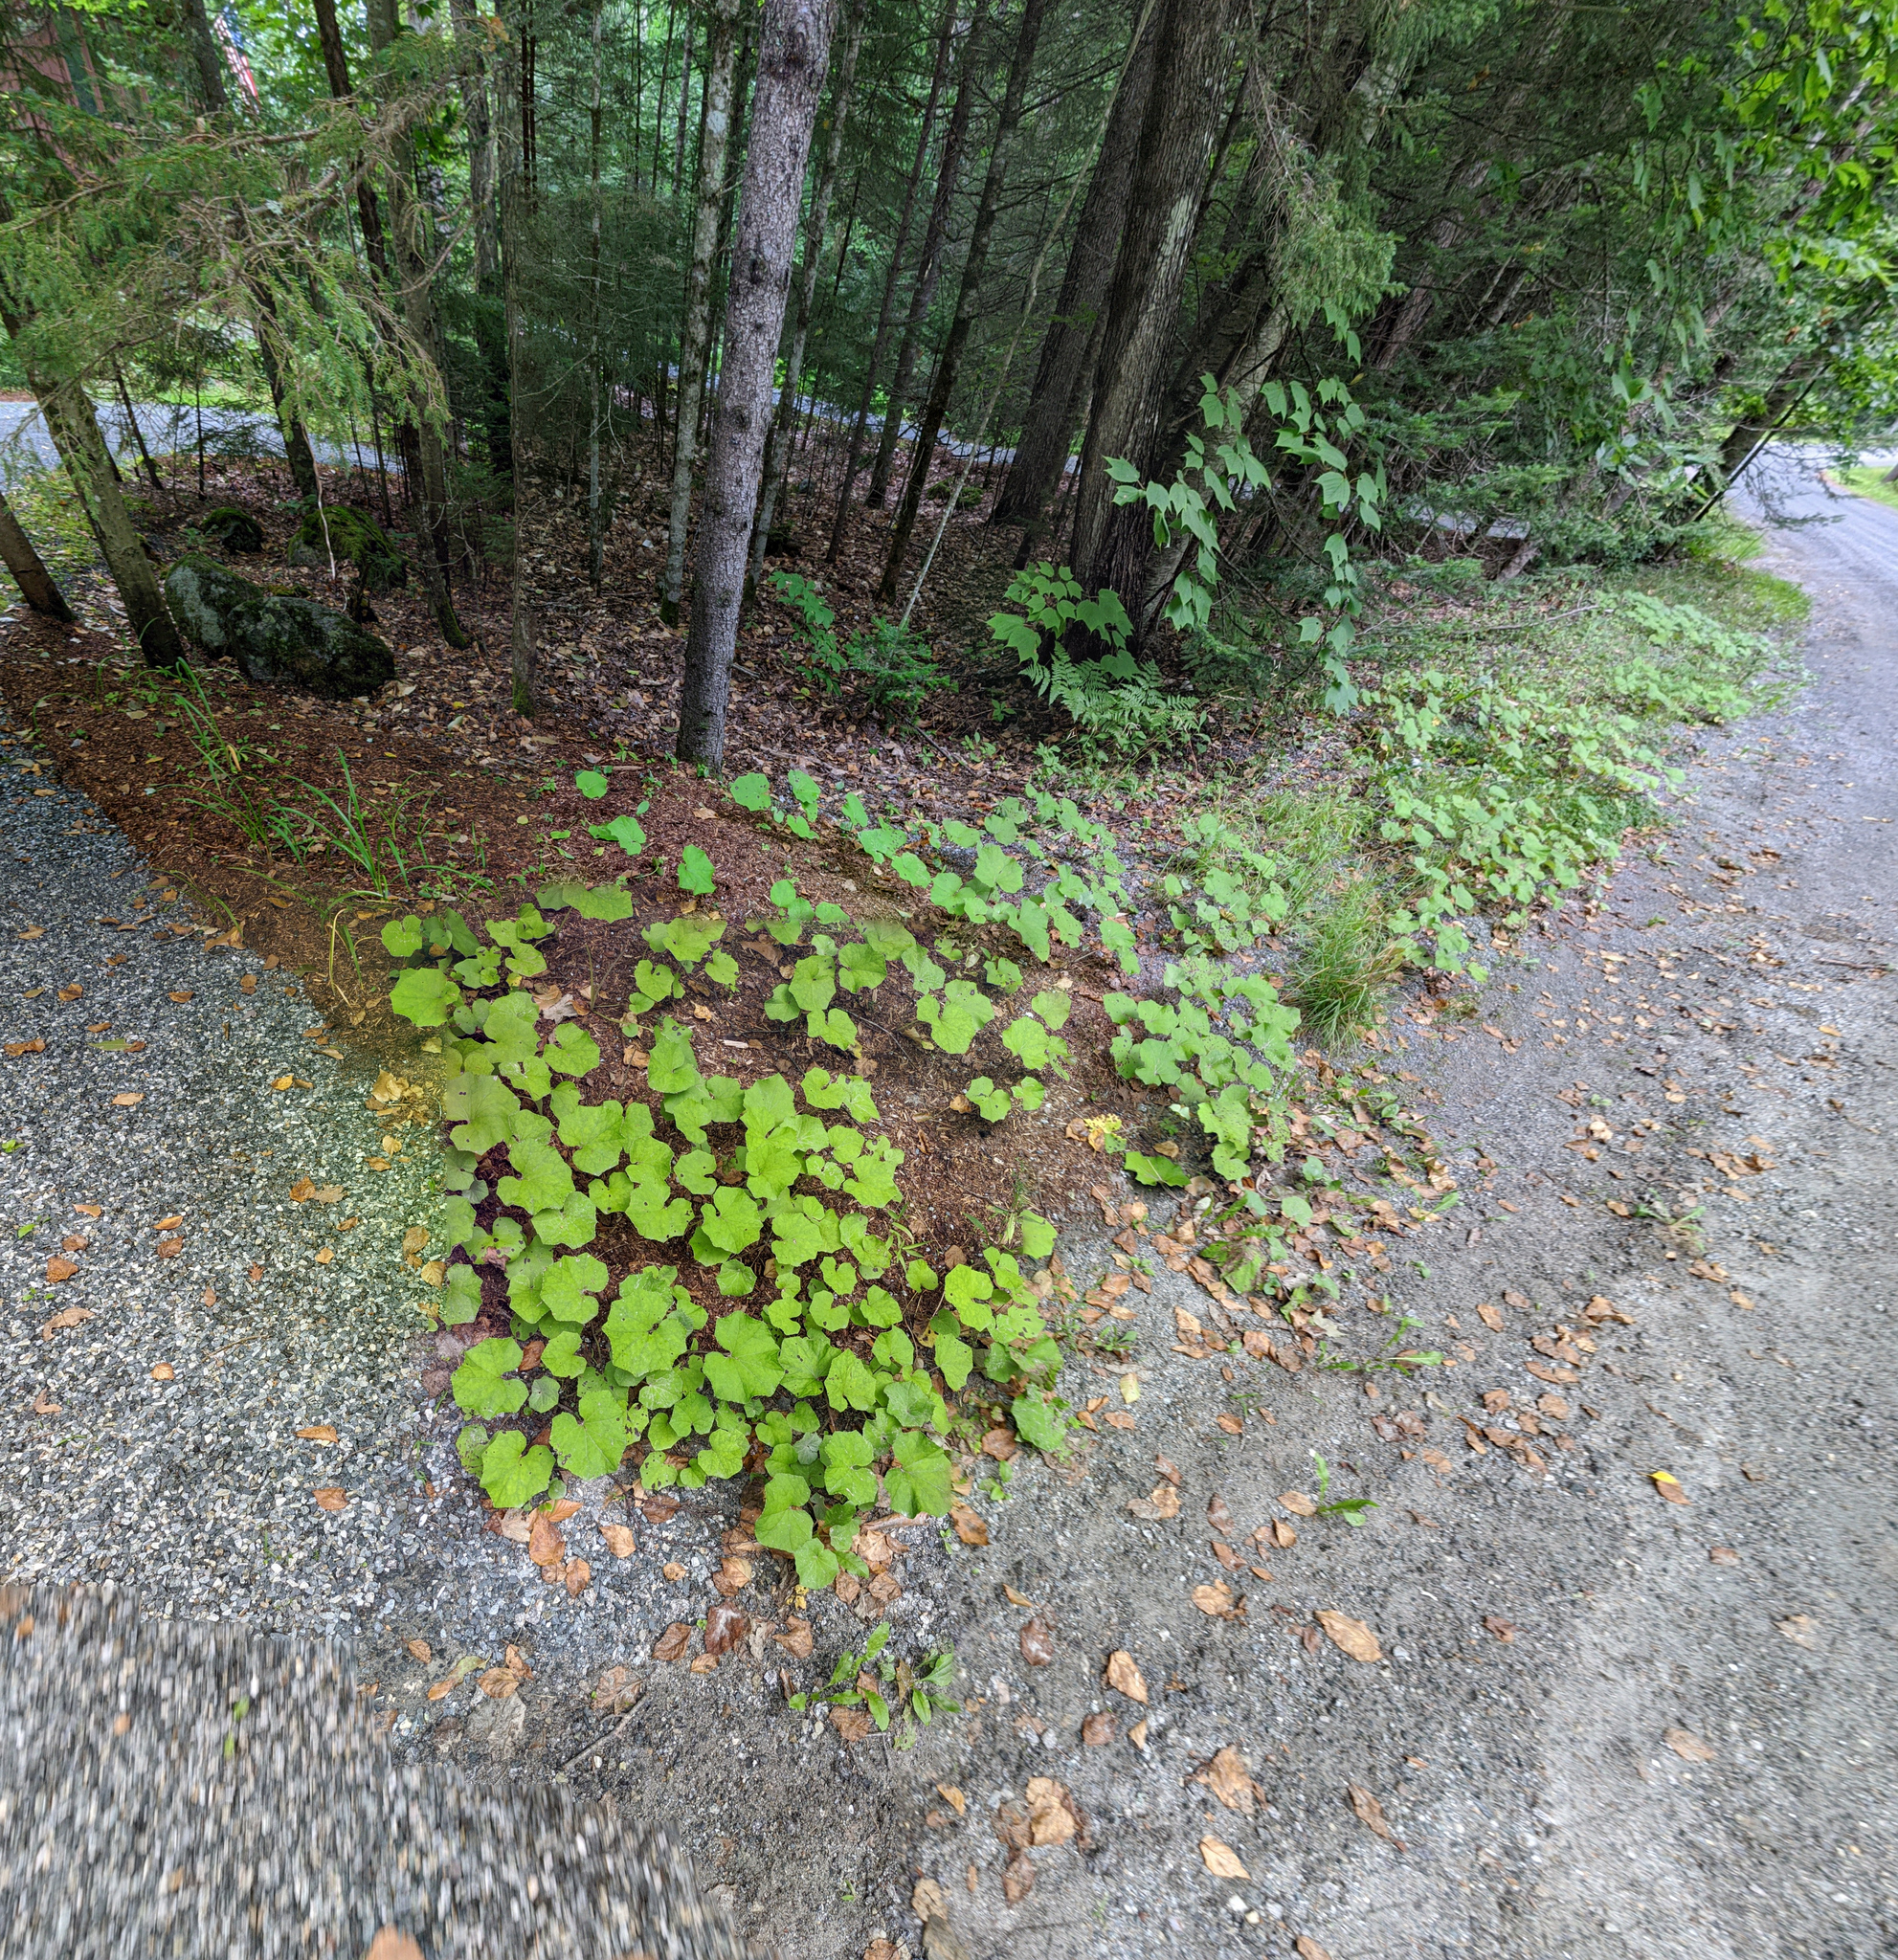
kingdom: Plantae
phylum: Tracheophyta
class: Magnoliopsida
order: Asterales
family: Asteraceae
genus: Tussilago
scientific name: Tussilago farfara
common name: Coltsfoot
